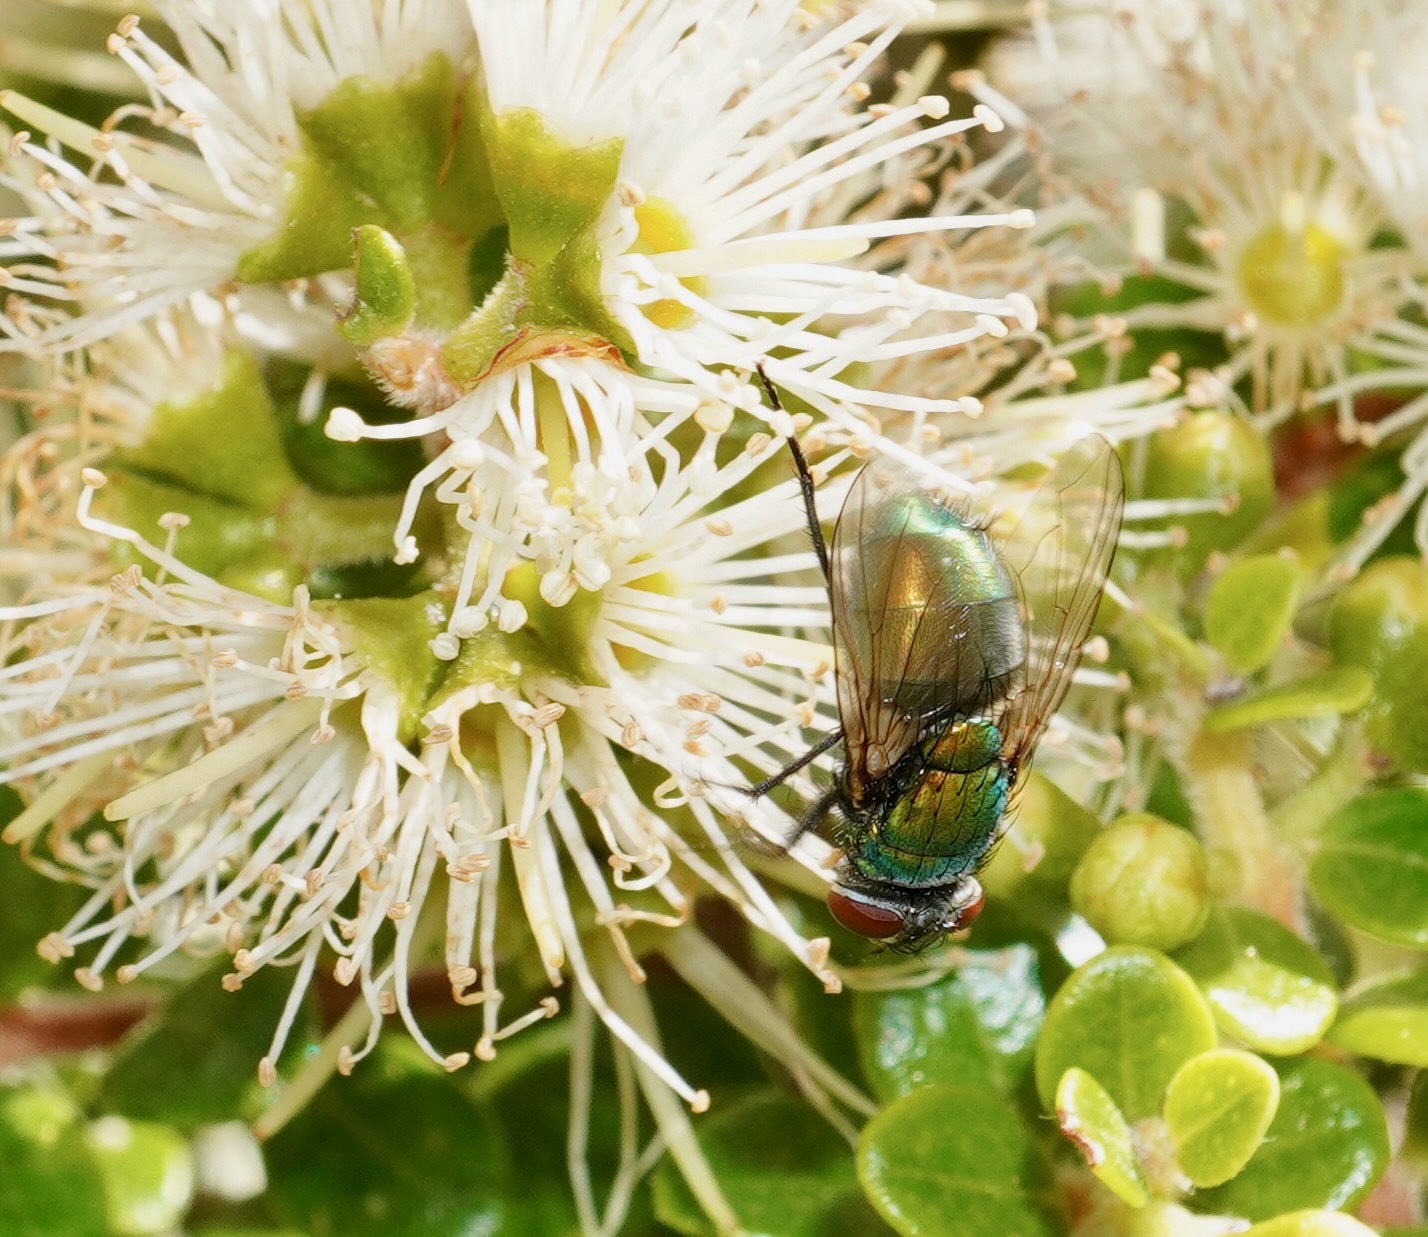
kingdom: Animalia
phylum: Arthropoda
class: Insecta
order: Diptera
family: Calliphoridae
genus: Lucilia
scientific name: Lucilia sericata
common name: Blow fly
